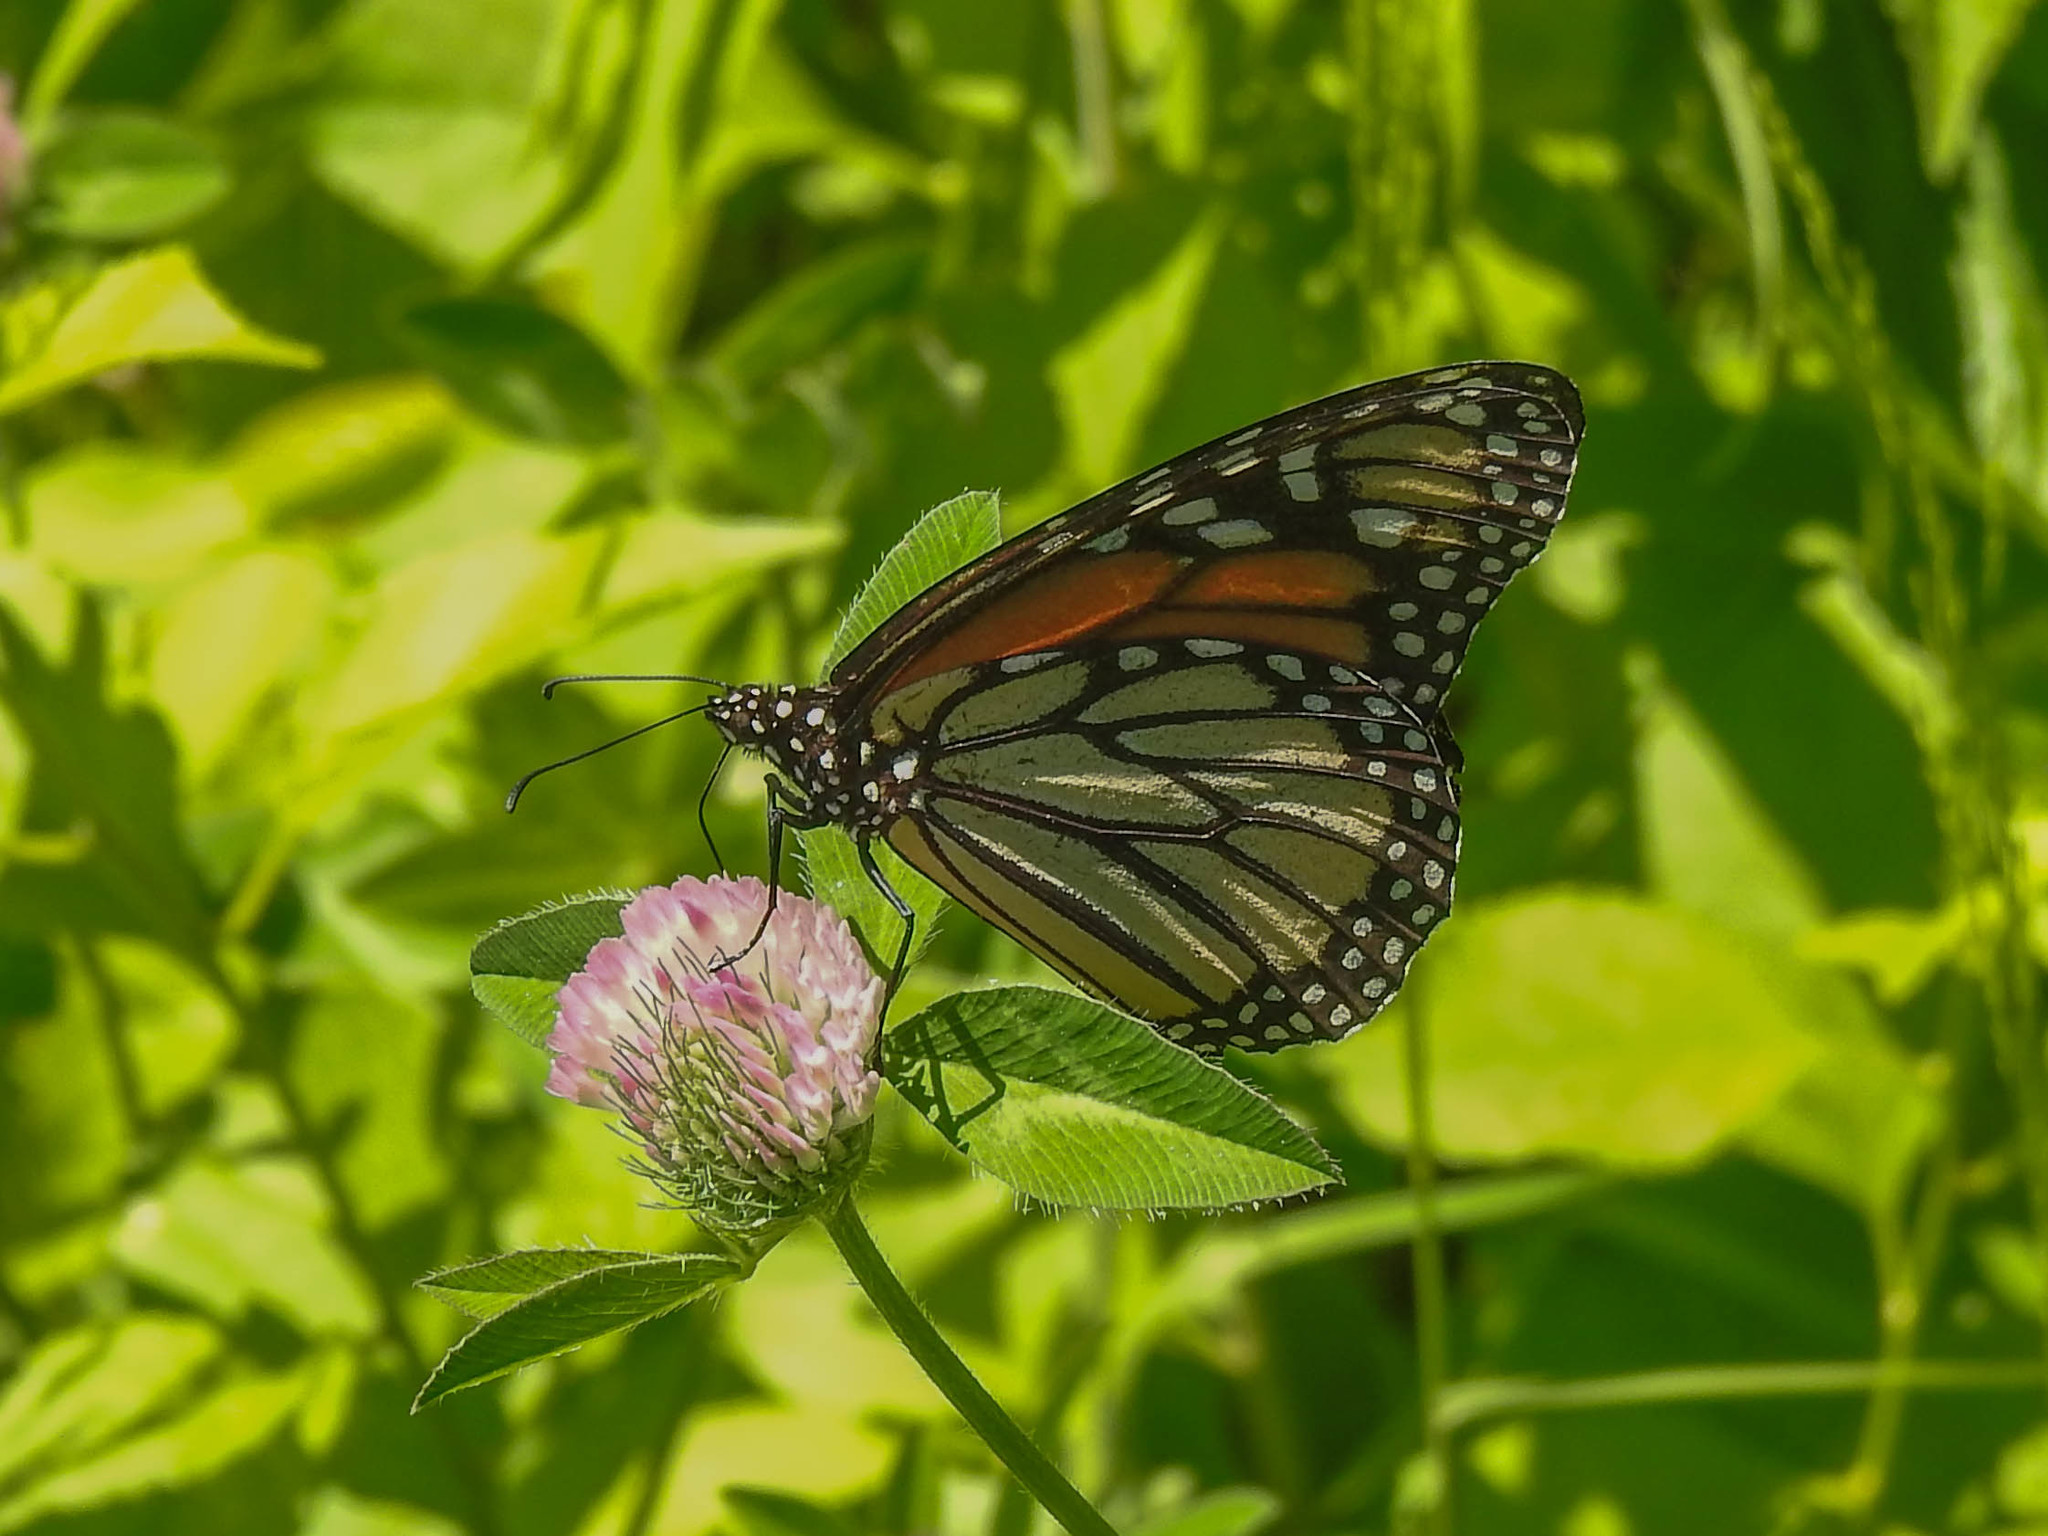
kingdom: Animalia
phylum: Arthropoda
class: Insecta
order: Lepidoptera
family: Nymphalidae
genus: Danaus
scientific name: Danaus plexippus
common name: Monarch
